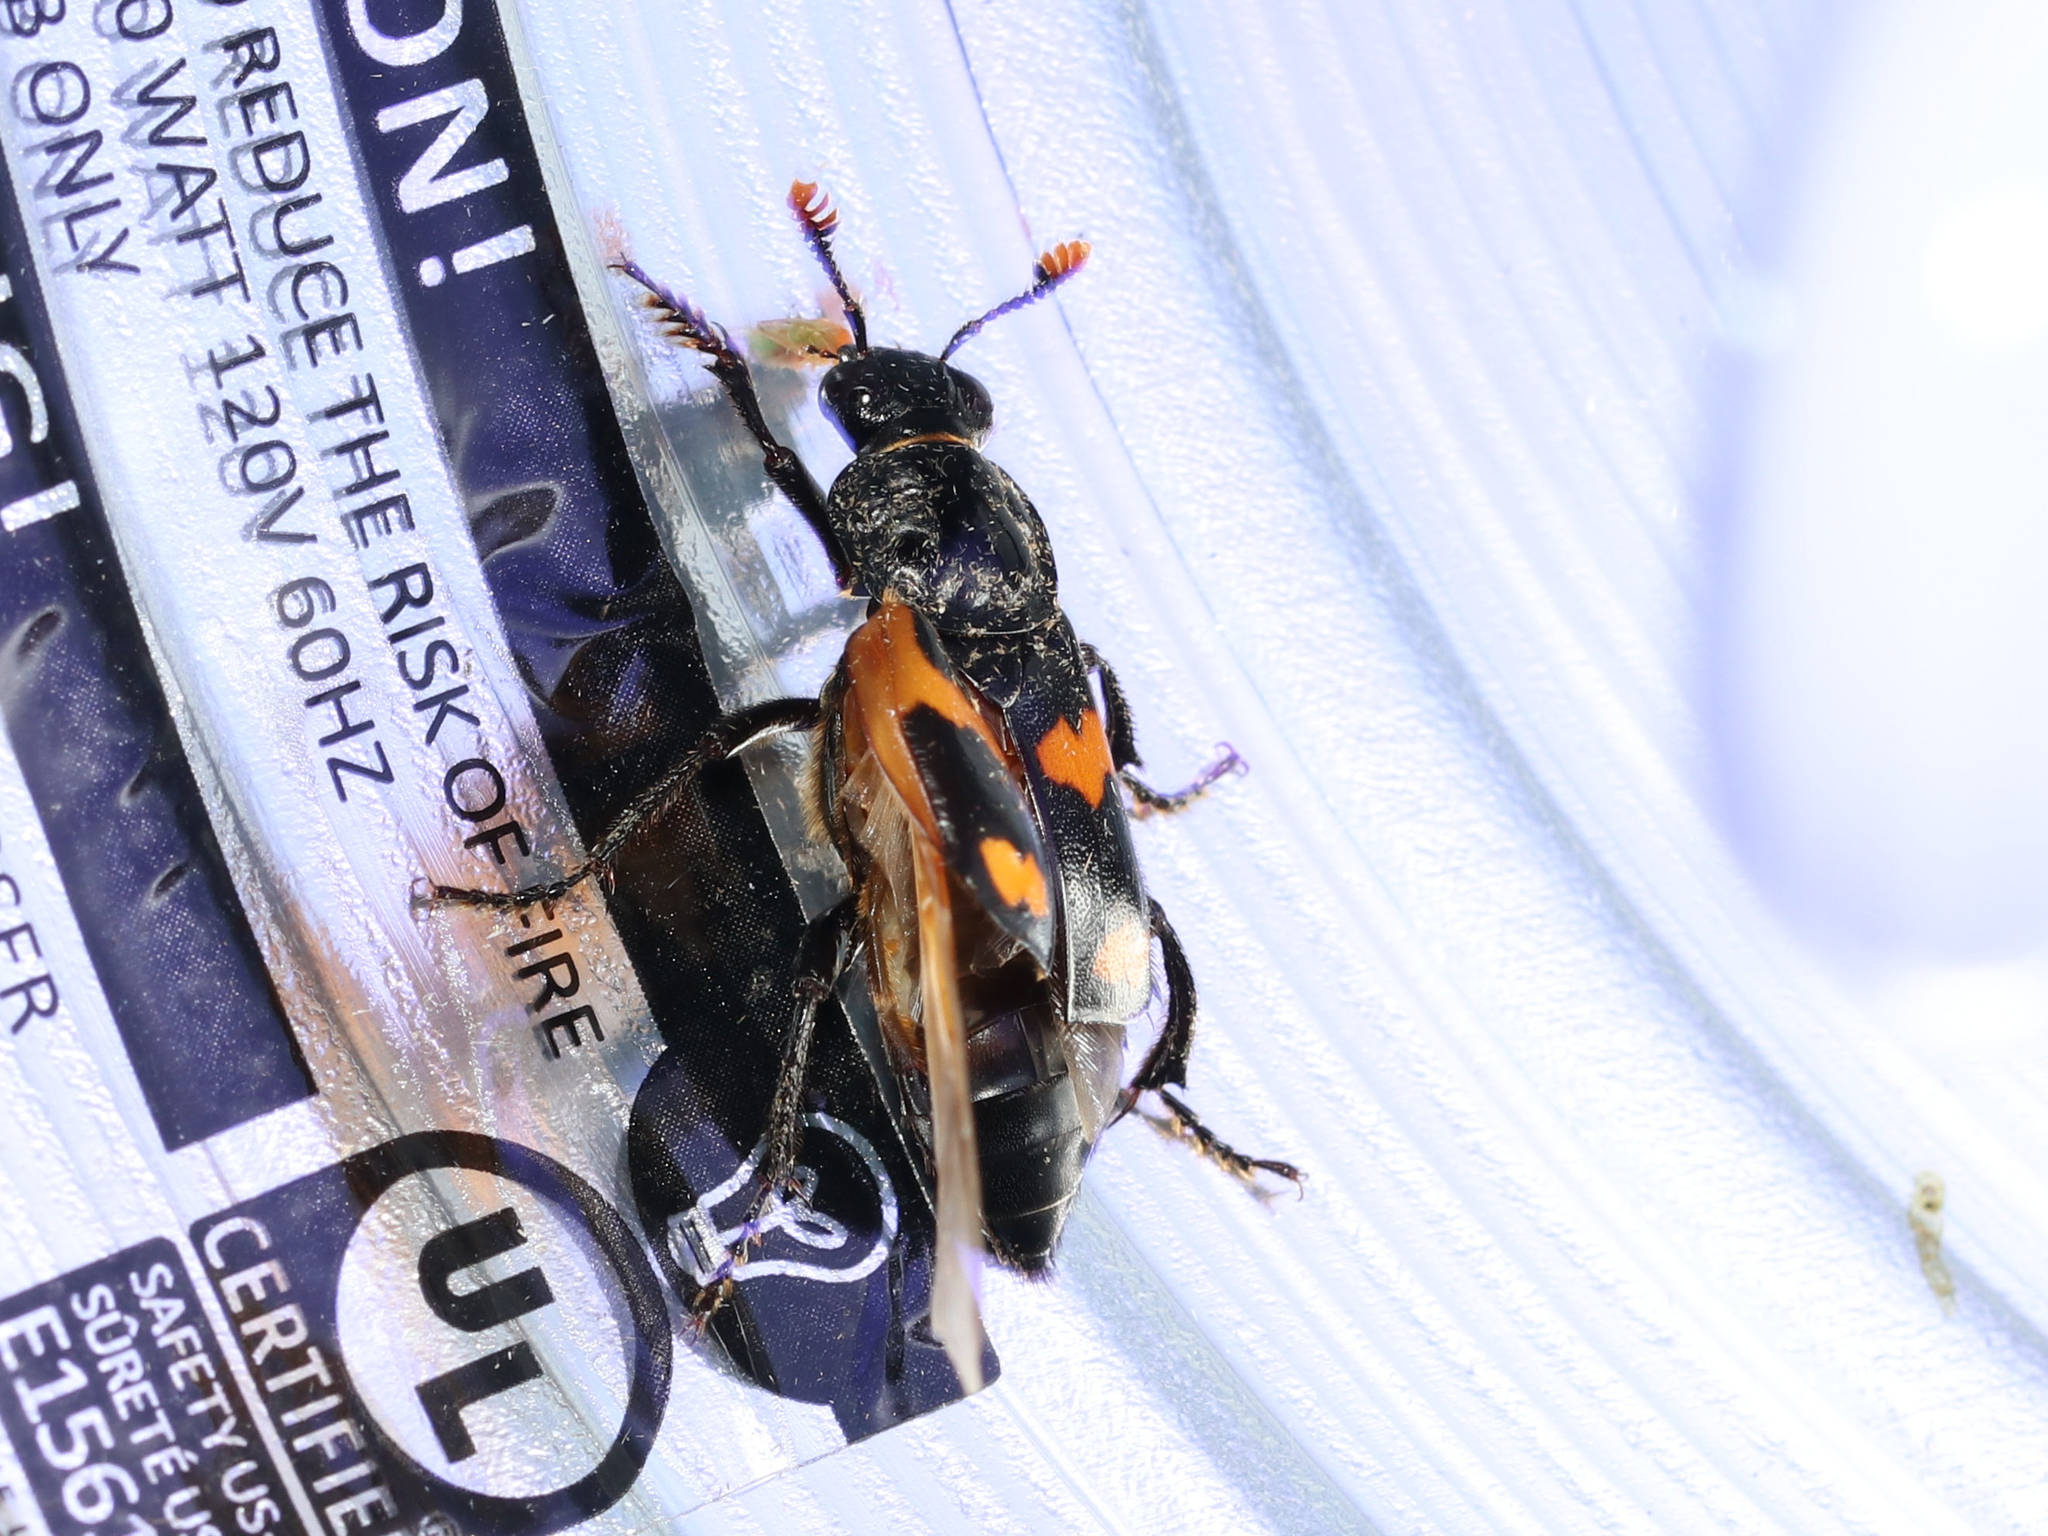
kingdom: Animalia
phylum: Arthropoda
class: Insecta
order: Coleoptera
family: Staphylinidae
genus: Nicrophorus
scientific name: Nicrophorus sayi
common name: Say's burying beetle
